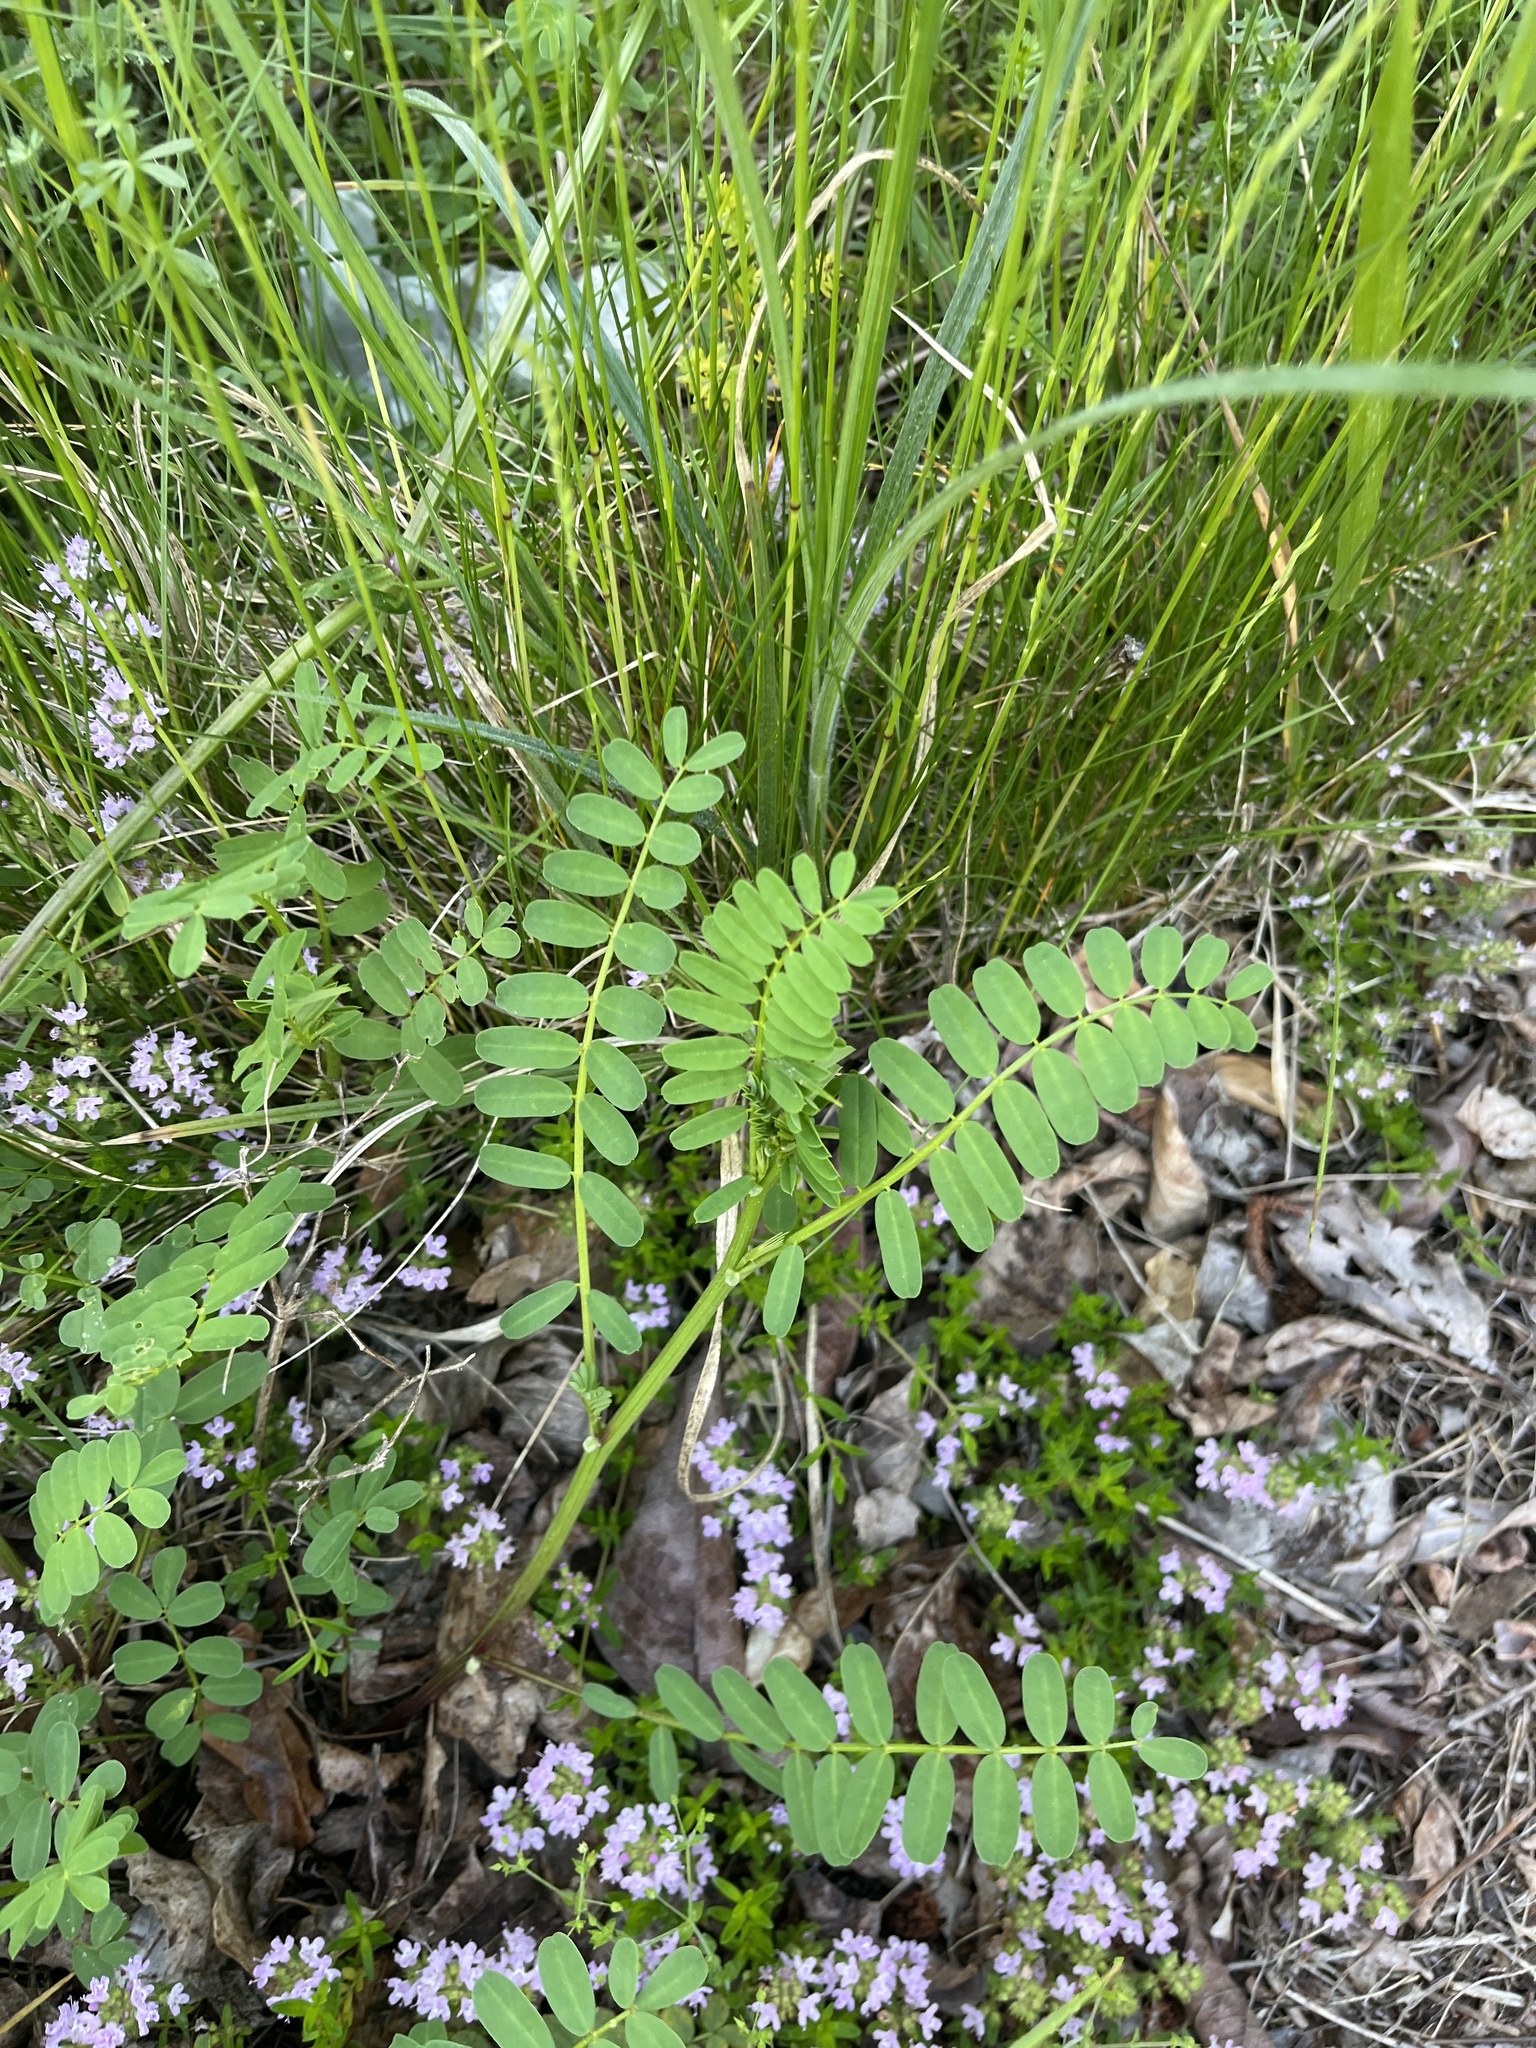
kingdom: Plantae
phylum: Tracheophyta
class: Magnoliopsida
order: Fabales
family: Fabaceae
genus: Coronilla
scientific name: Coronilla varia
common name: Crownvetch
